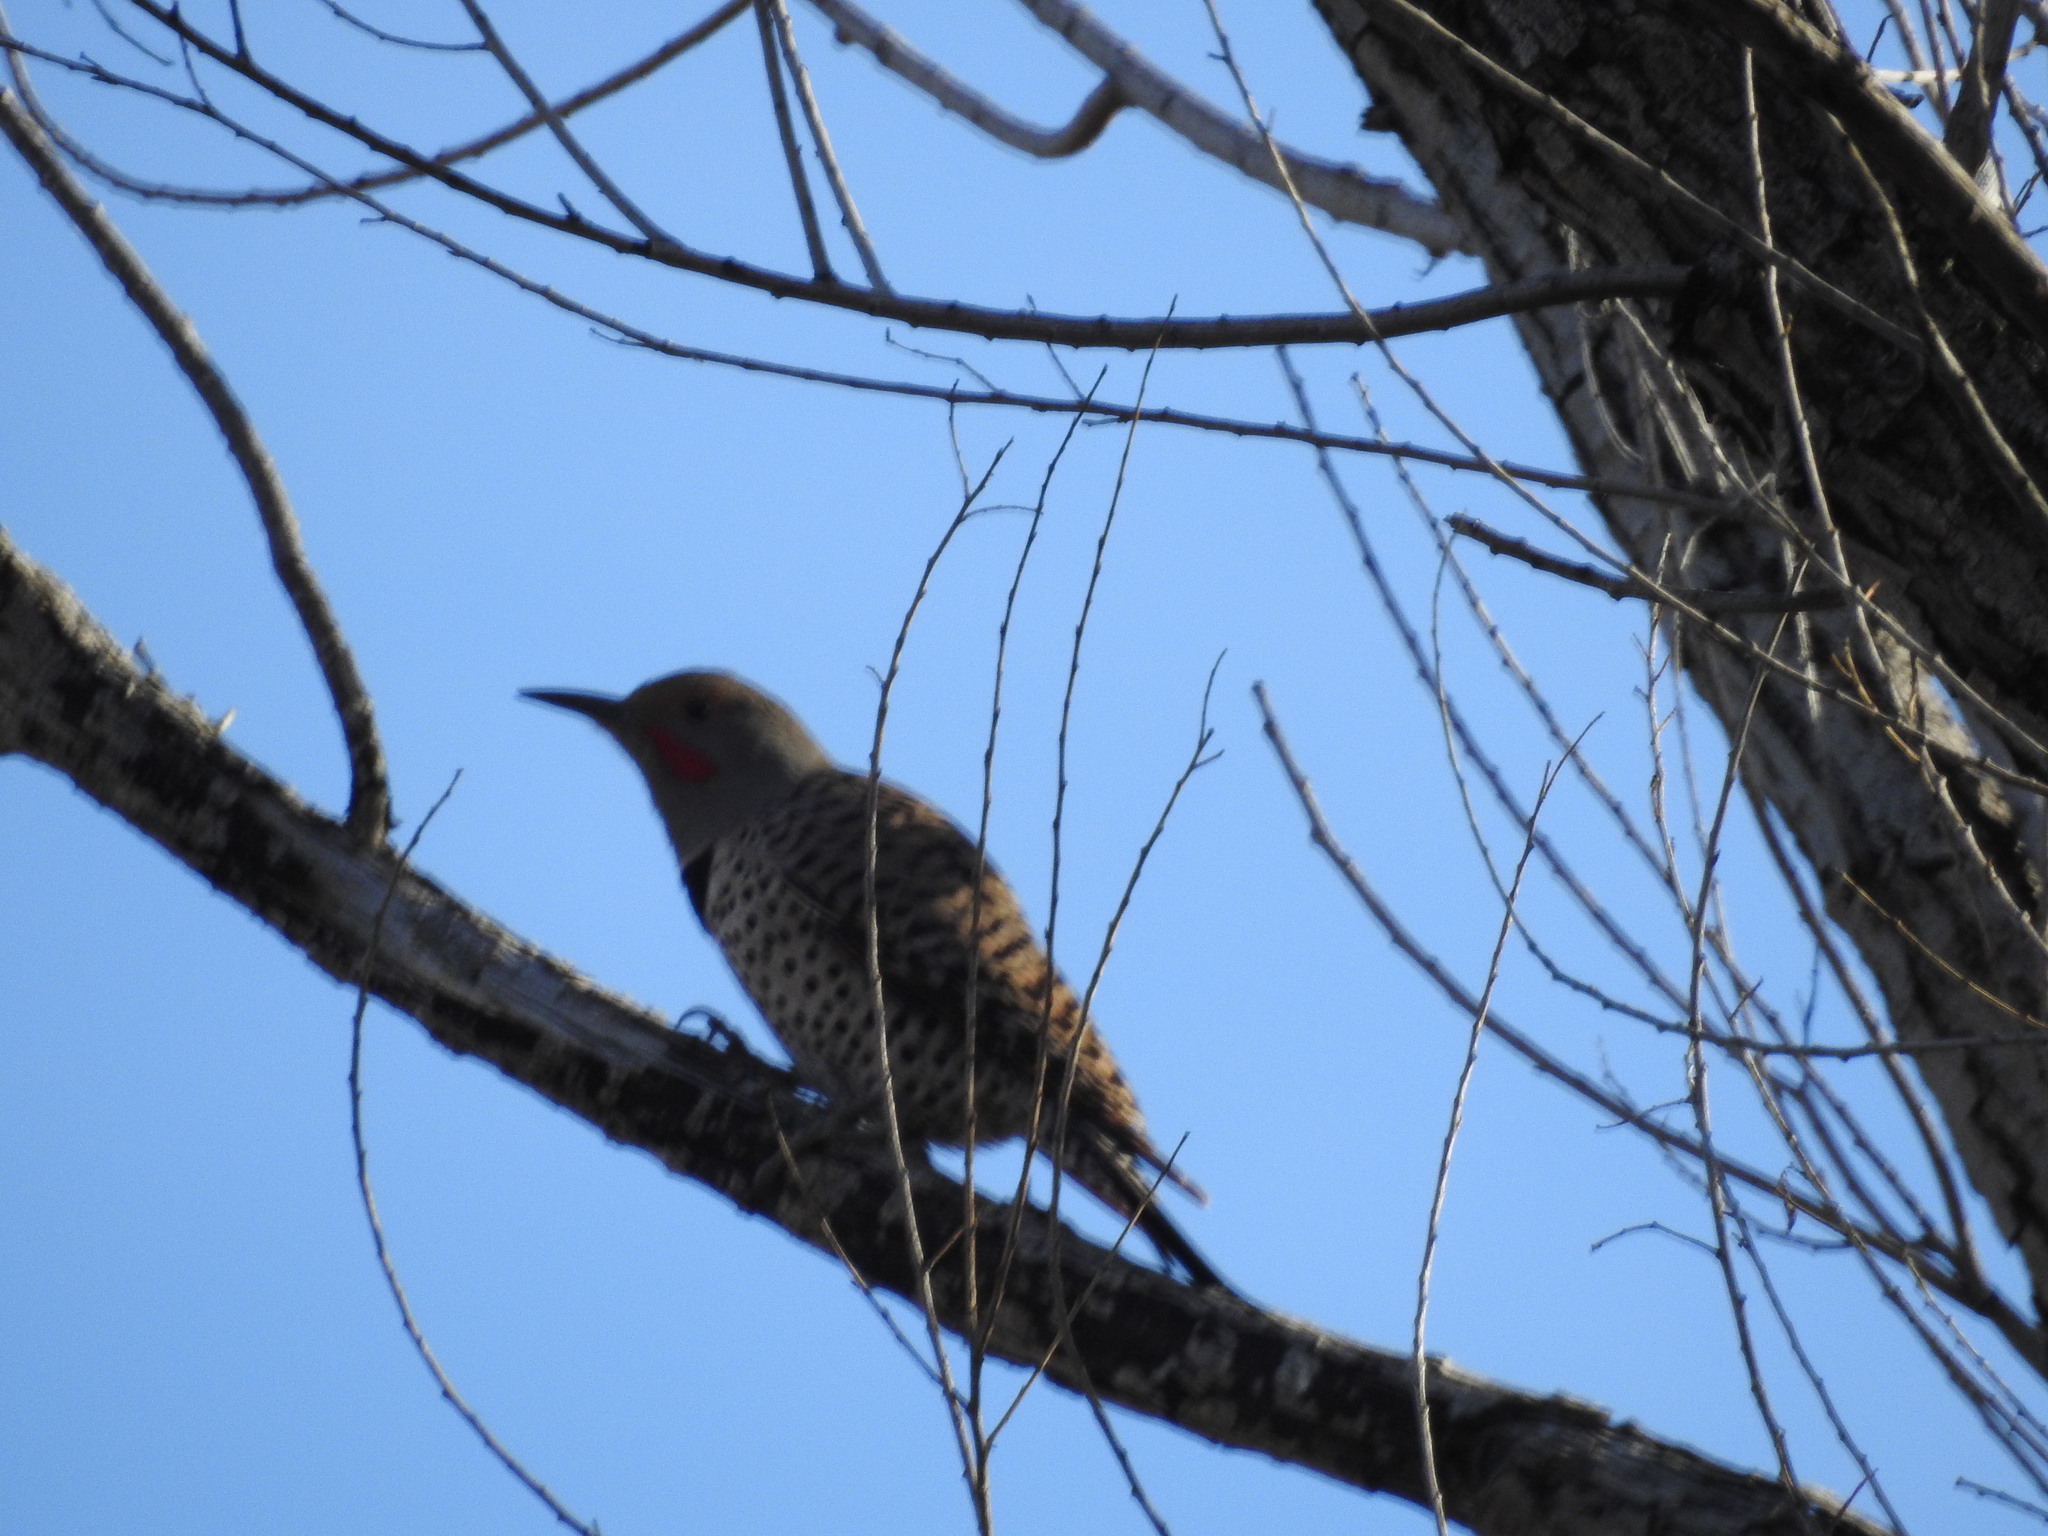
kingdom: Animalia
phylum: Chordata
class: Aves
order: Piciformes
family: Picidae
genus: Colaptes
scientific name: Colaptes auratus
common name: Northern flicker
